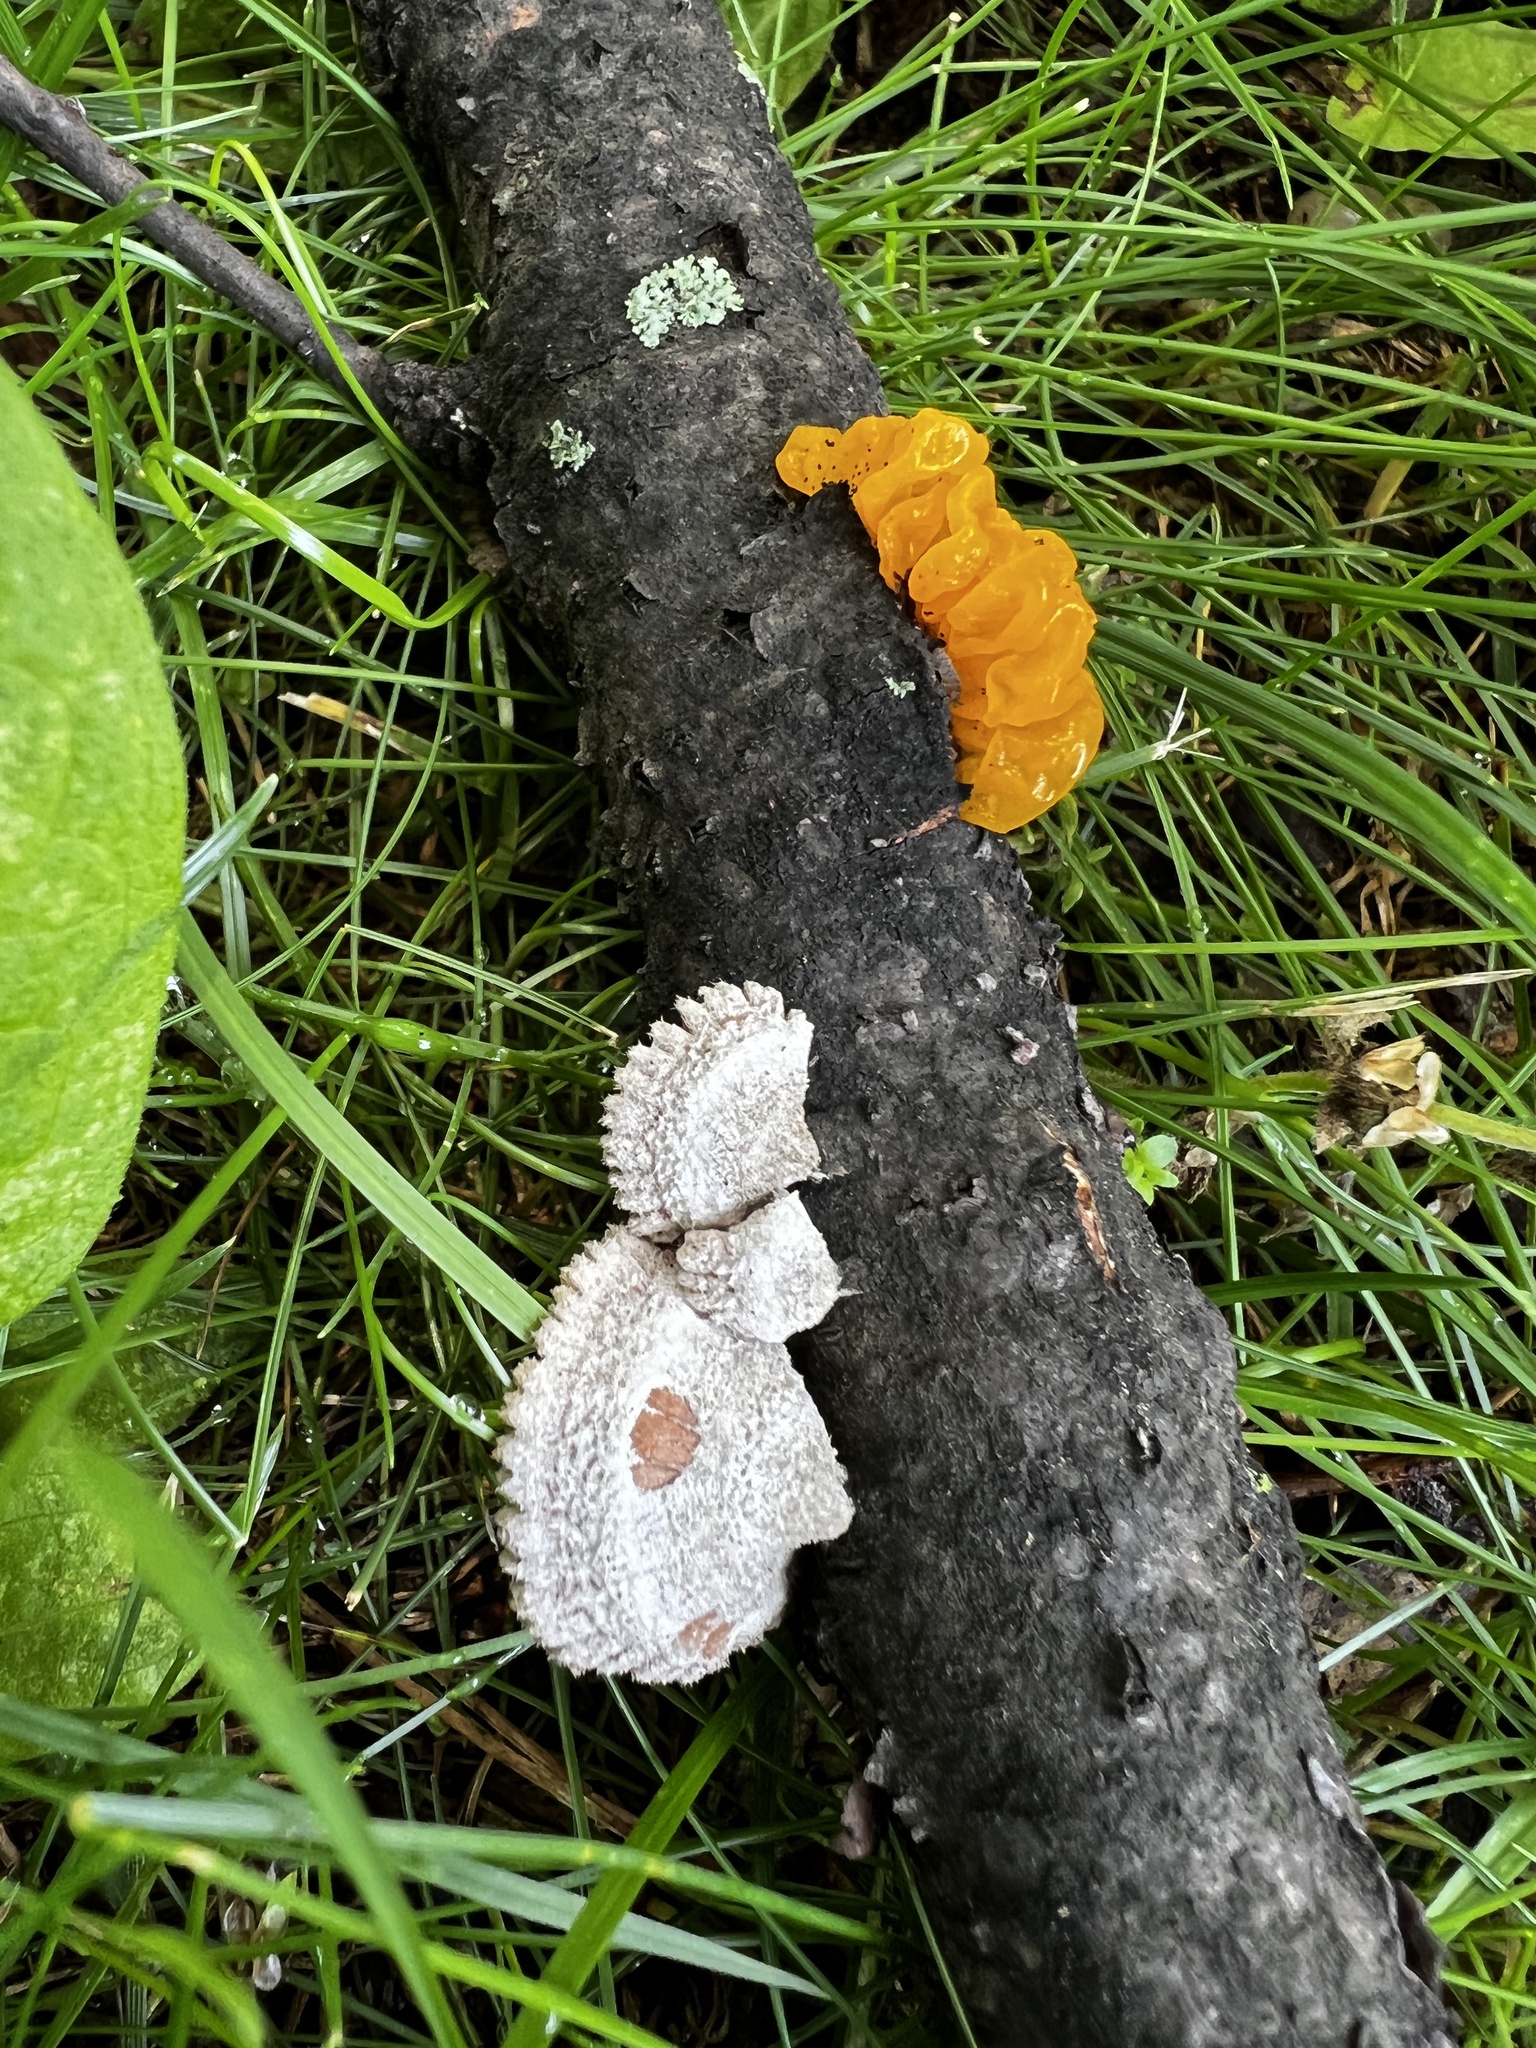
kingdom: Fungi
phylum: Basidiomycota
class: Agaricomycetes
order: Agaricales
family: Schizophyllaceae
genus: Schizophyllum
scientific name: Schizophyllum commune
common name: Common porecrust
